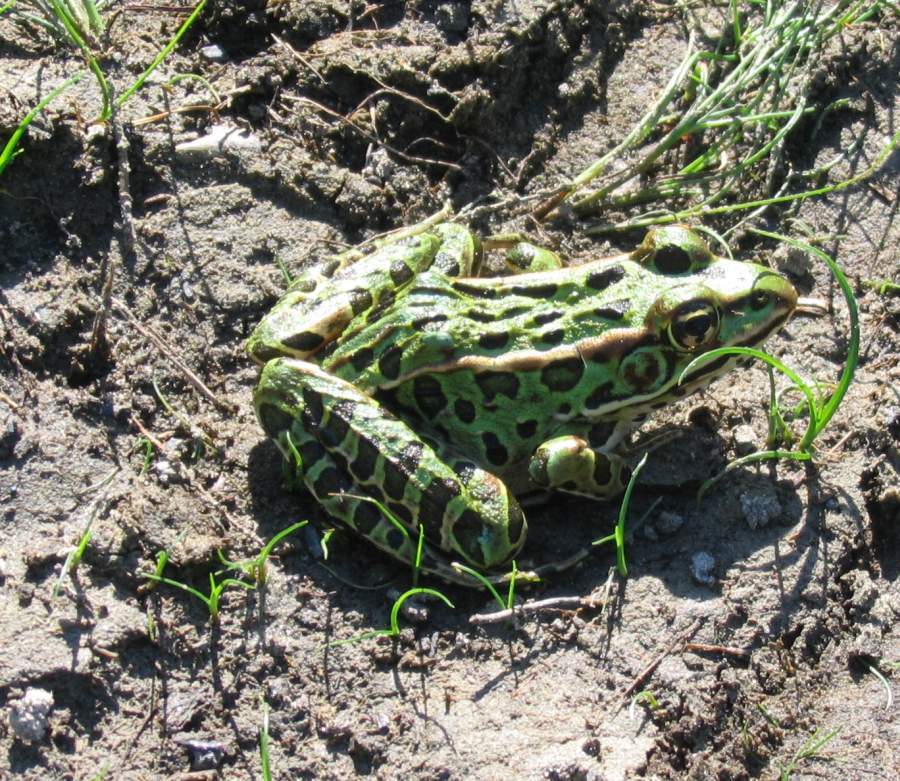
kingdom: Animalia
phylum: Chordata
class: Amphibia
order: Anura
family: Ranidae
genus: Lithobates
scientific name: Lithobates pipiens
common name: Northern leopard frog
